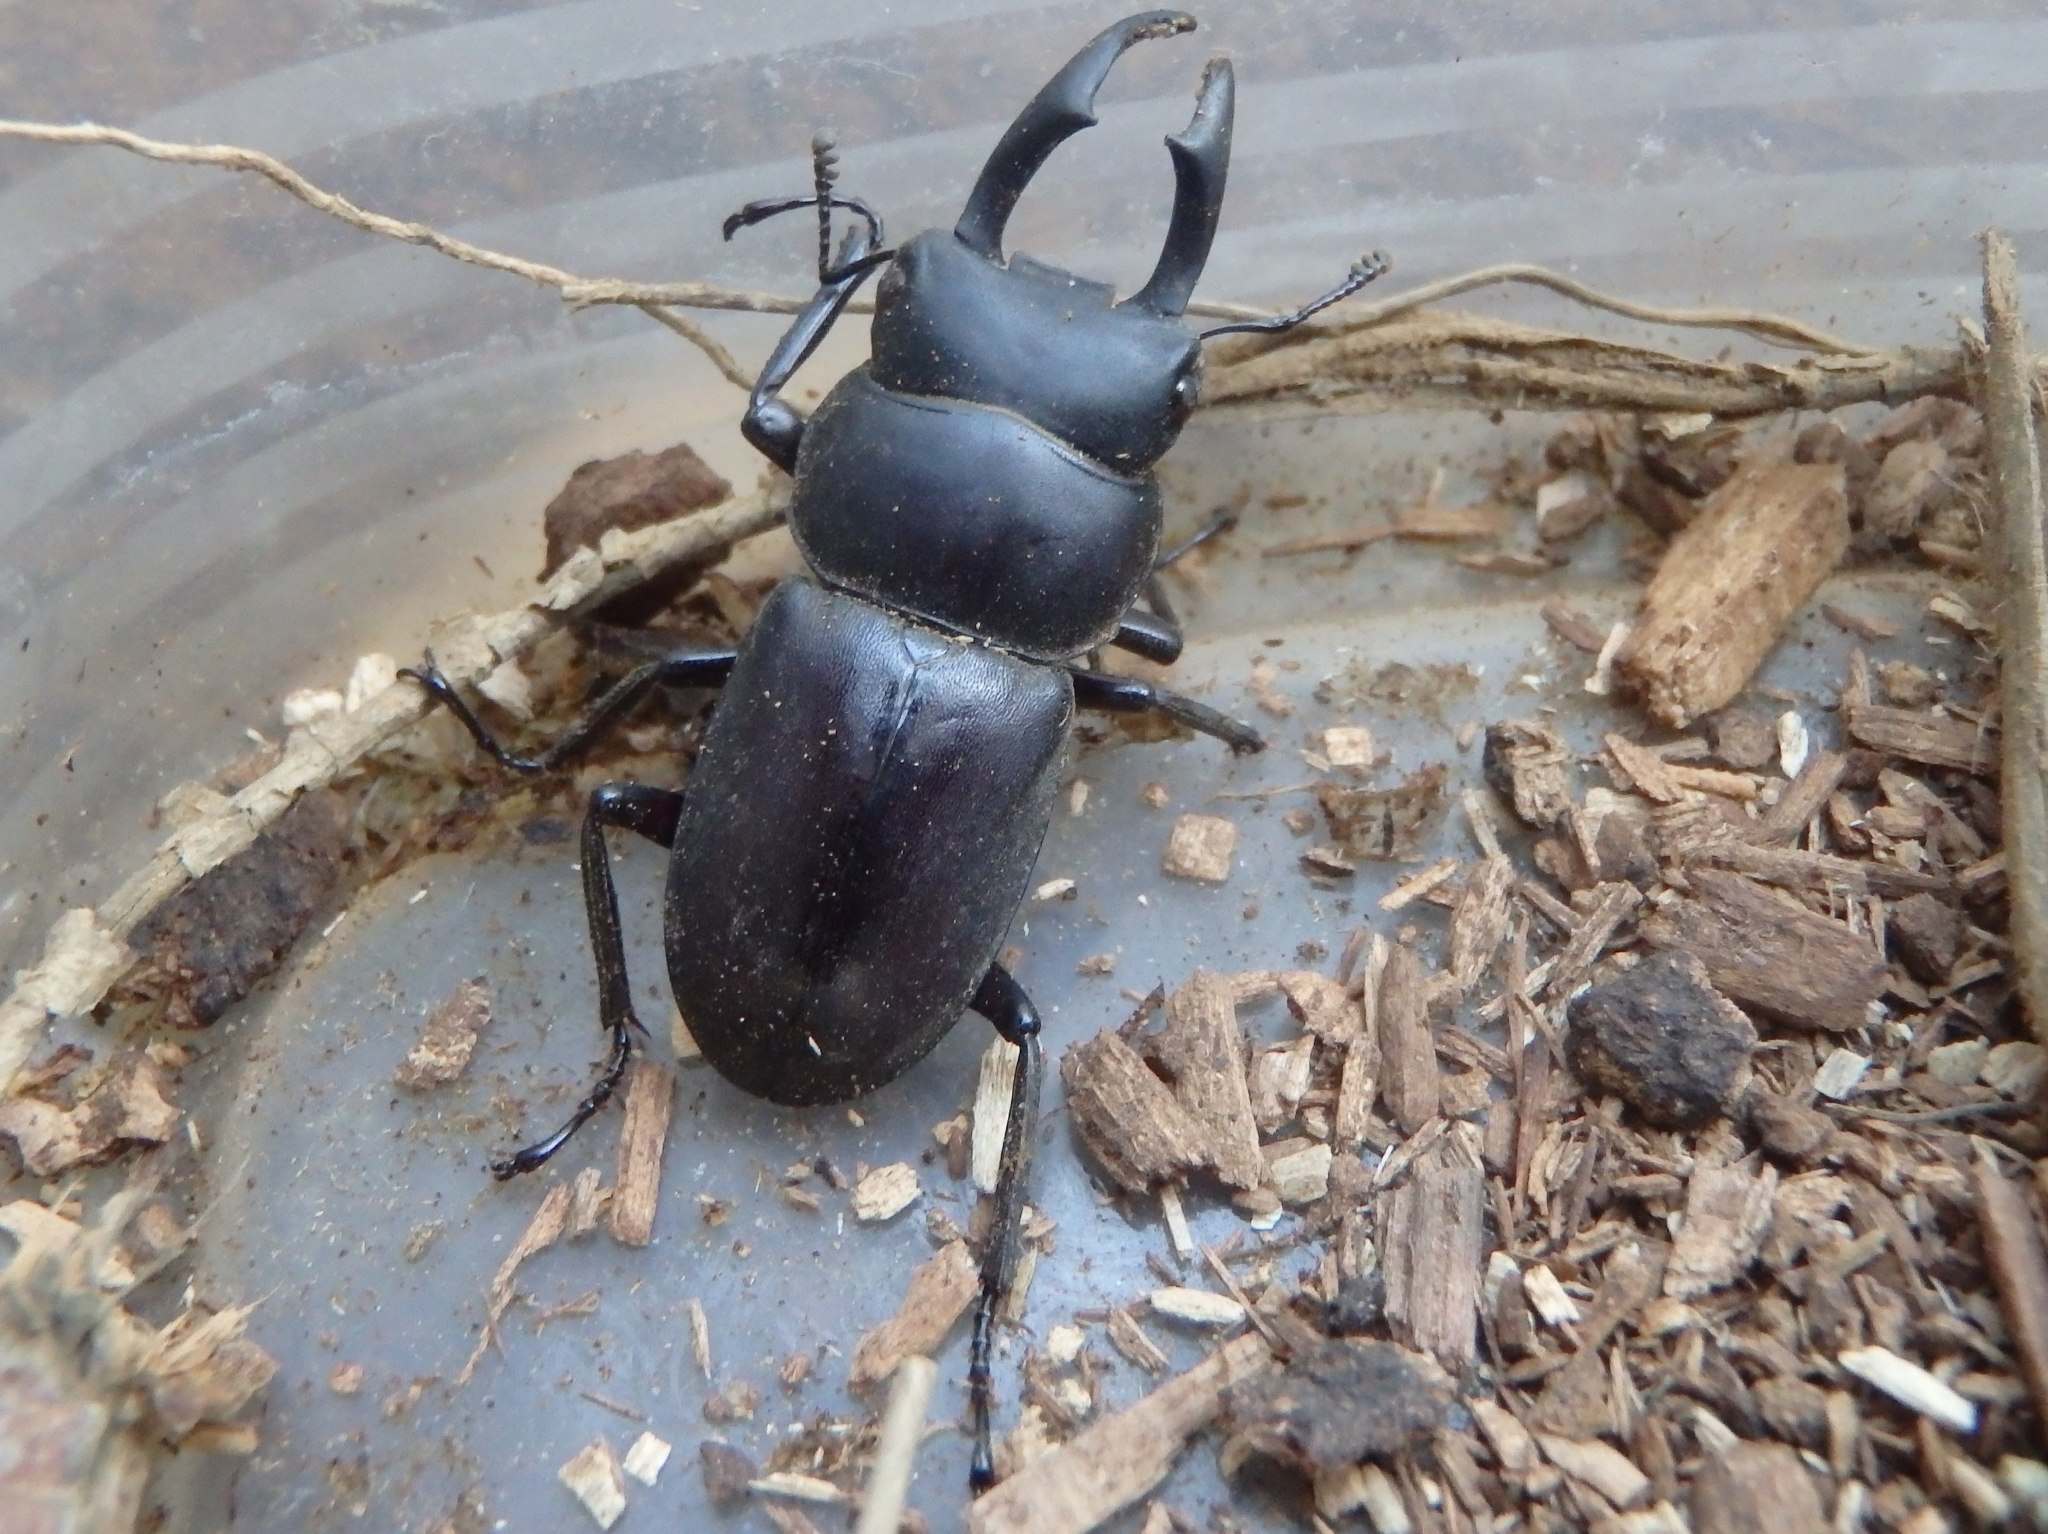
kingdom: Animalia
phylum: Arthropoda
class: Insecta
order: Coleoptera
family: Lucanidae
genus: Dorcus
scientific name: Dorcus rectus
